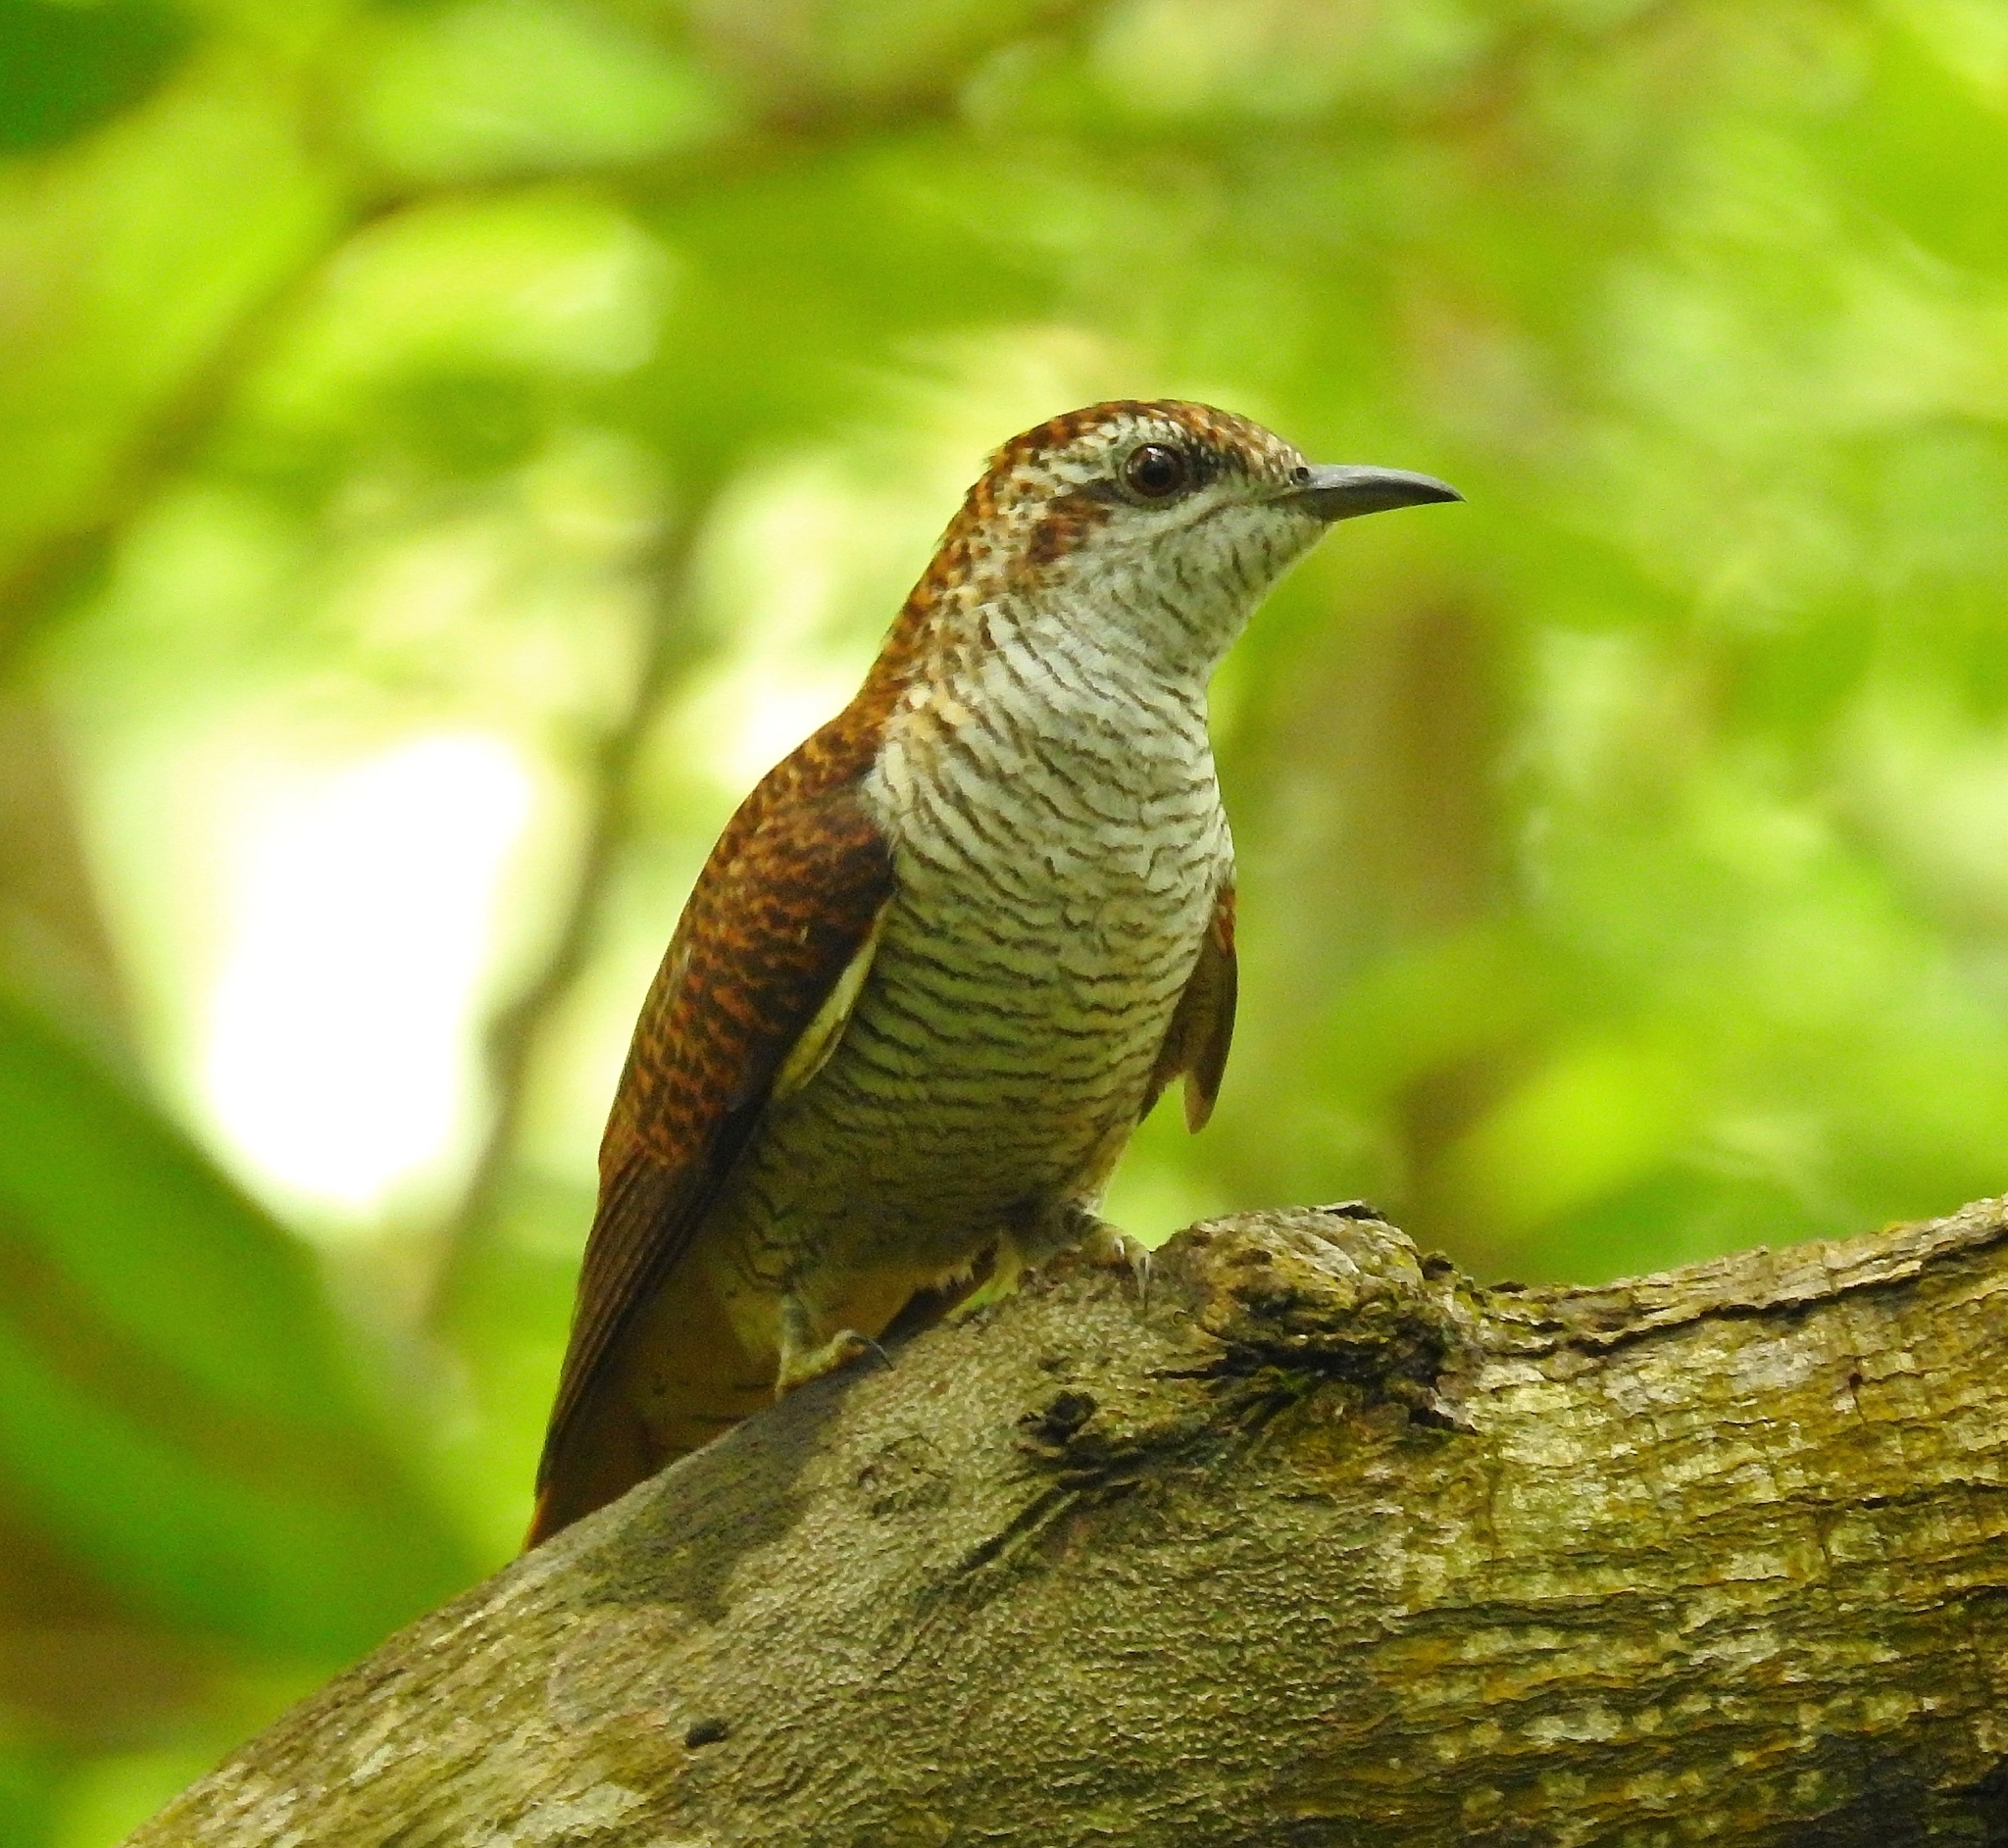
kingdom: Animalia
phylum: Chordata
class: Aves
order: Cuculiformes
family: Cuculidae
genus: Cacomantis
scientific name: Cacomantis sonneratii
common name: Banded bay cuckoo
